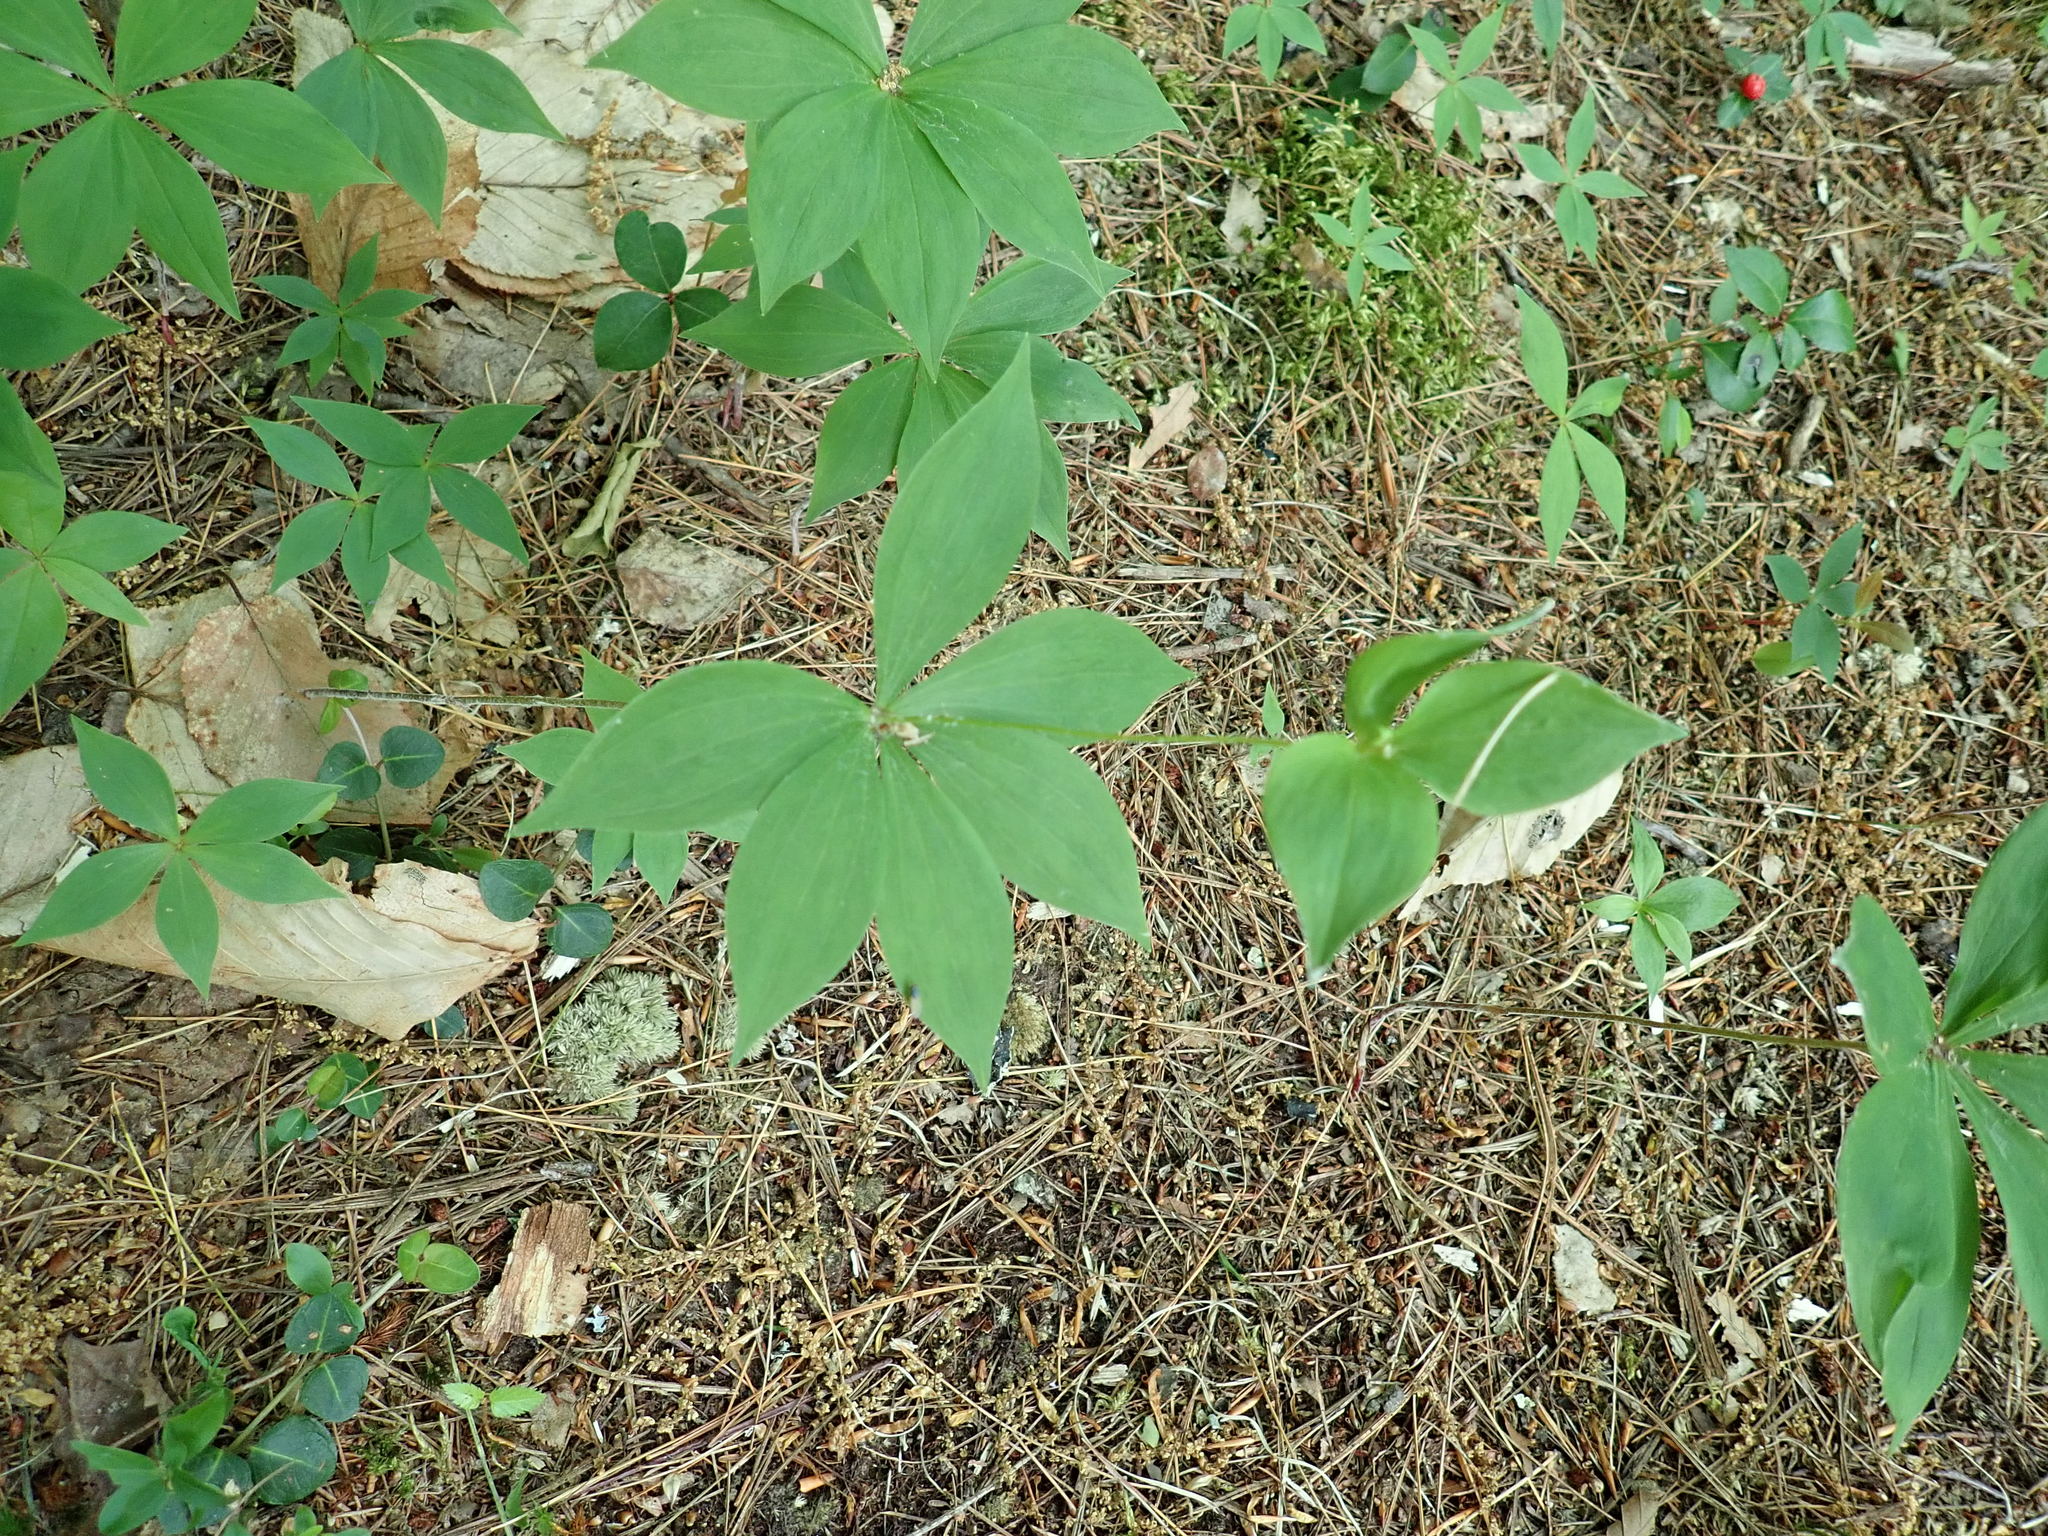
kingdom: Plantae
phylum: Tracheophyta
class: Liliopsida
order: Liliales
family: Liliaceae
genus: Medeola
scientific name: Medeola virginiana
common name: Indian cucumber-root
